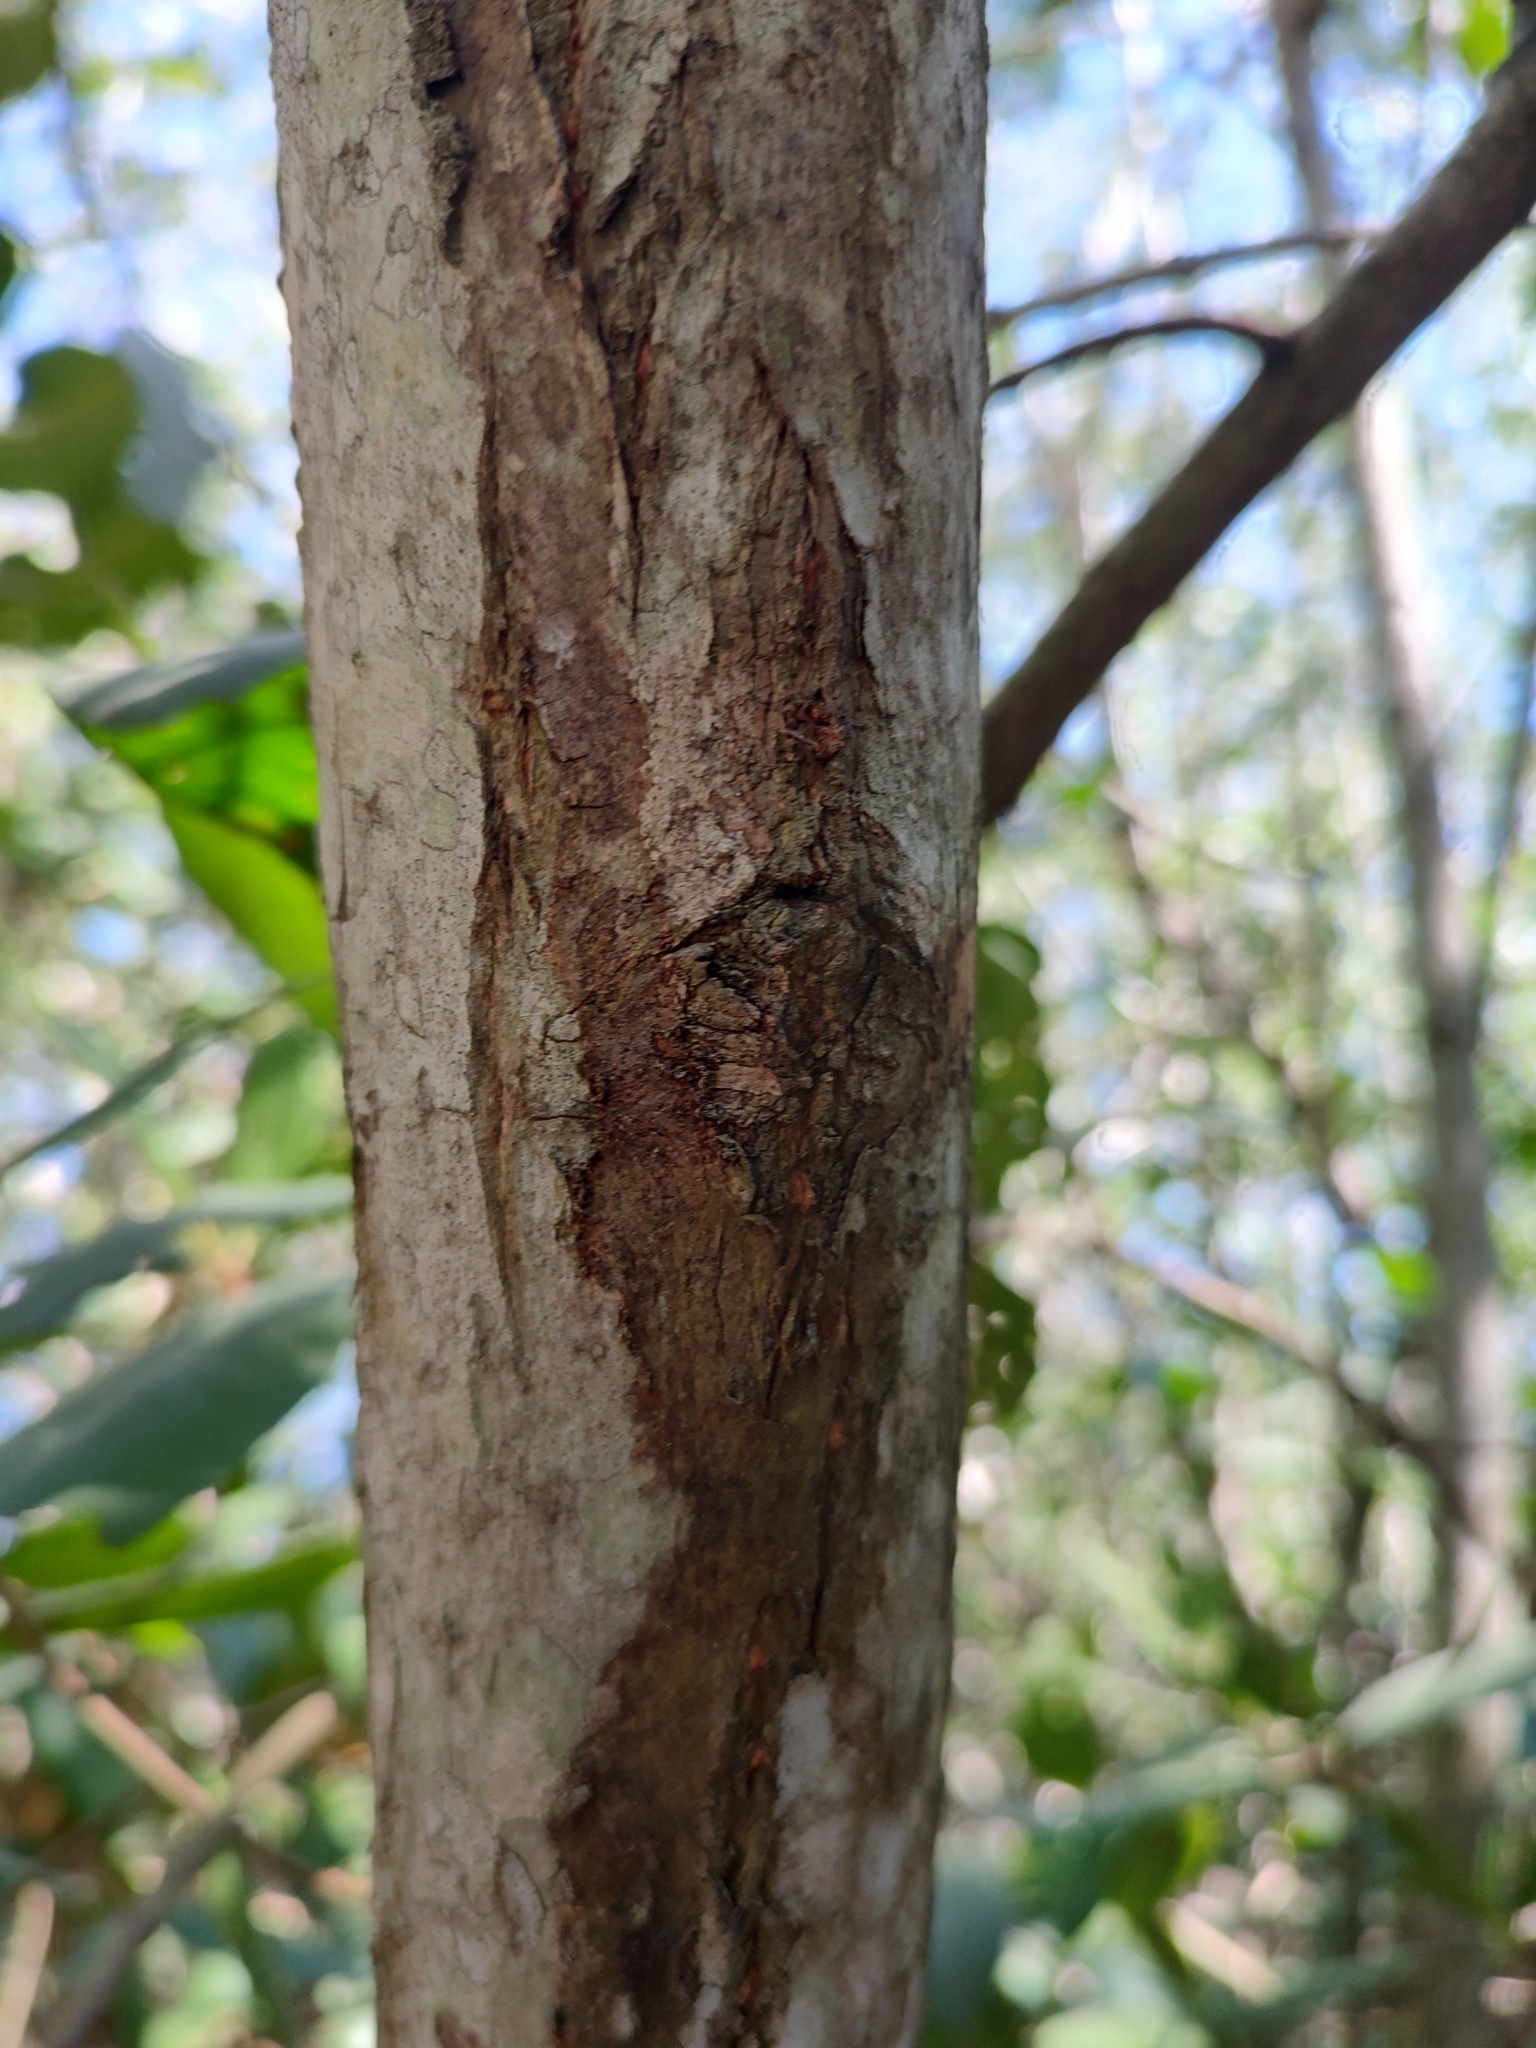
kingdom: Plantae
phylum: Tracheophyta
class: Magnoliopsida
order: Myrtales
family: Combretaceae
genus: Laguncularia
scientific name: Laguncularia racemosa
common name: White mangrove
